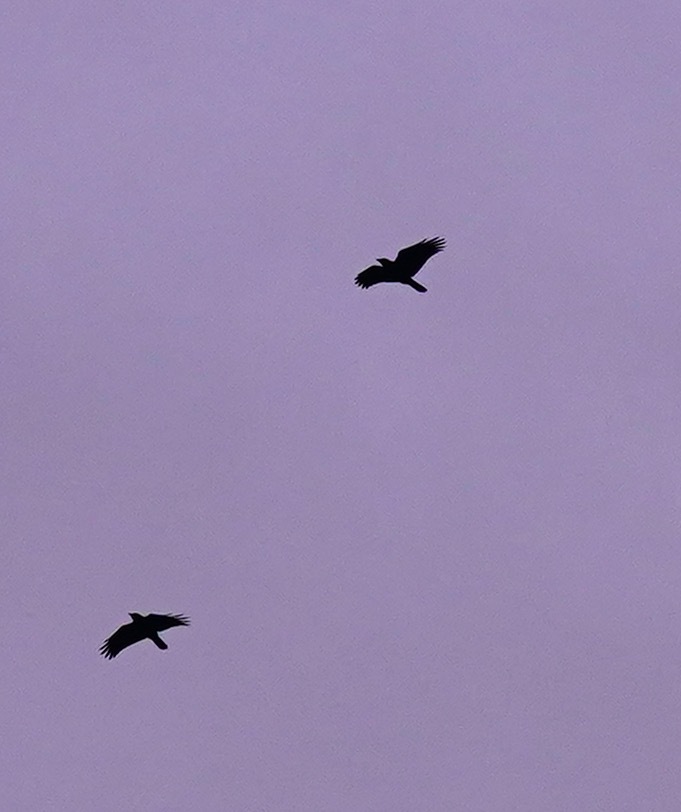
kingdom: Animalia
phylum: Chordata
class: Aves
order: Passeriformes
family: Corvidae
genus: Corvus
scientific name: Corvus brachyrhynchos
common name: American crow
